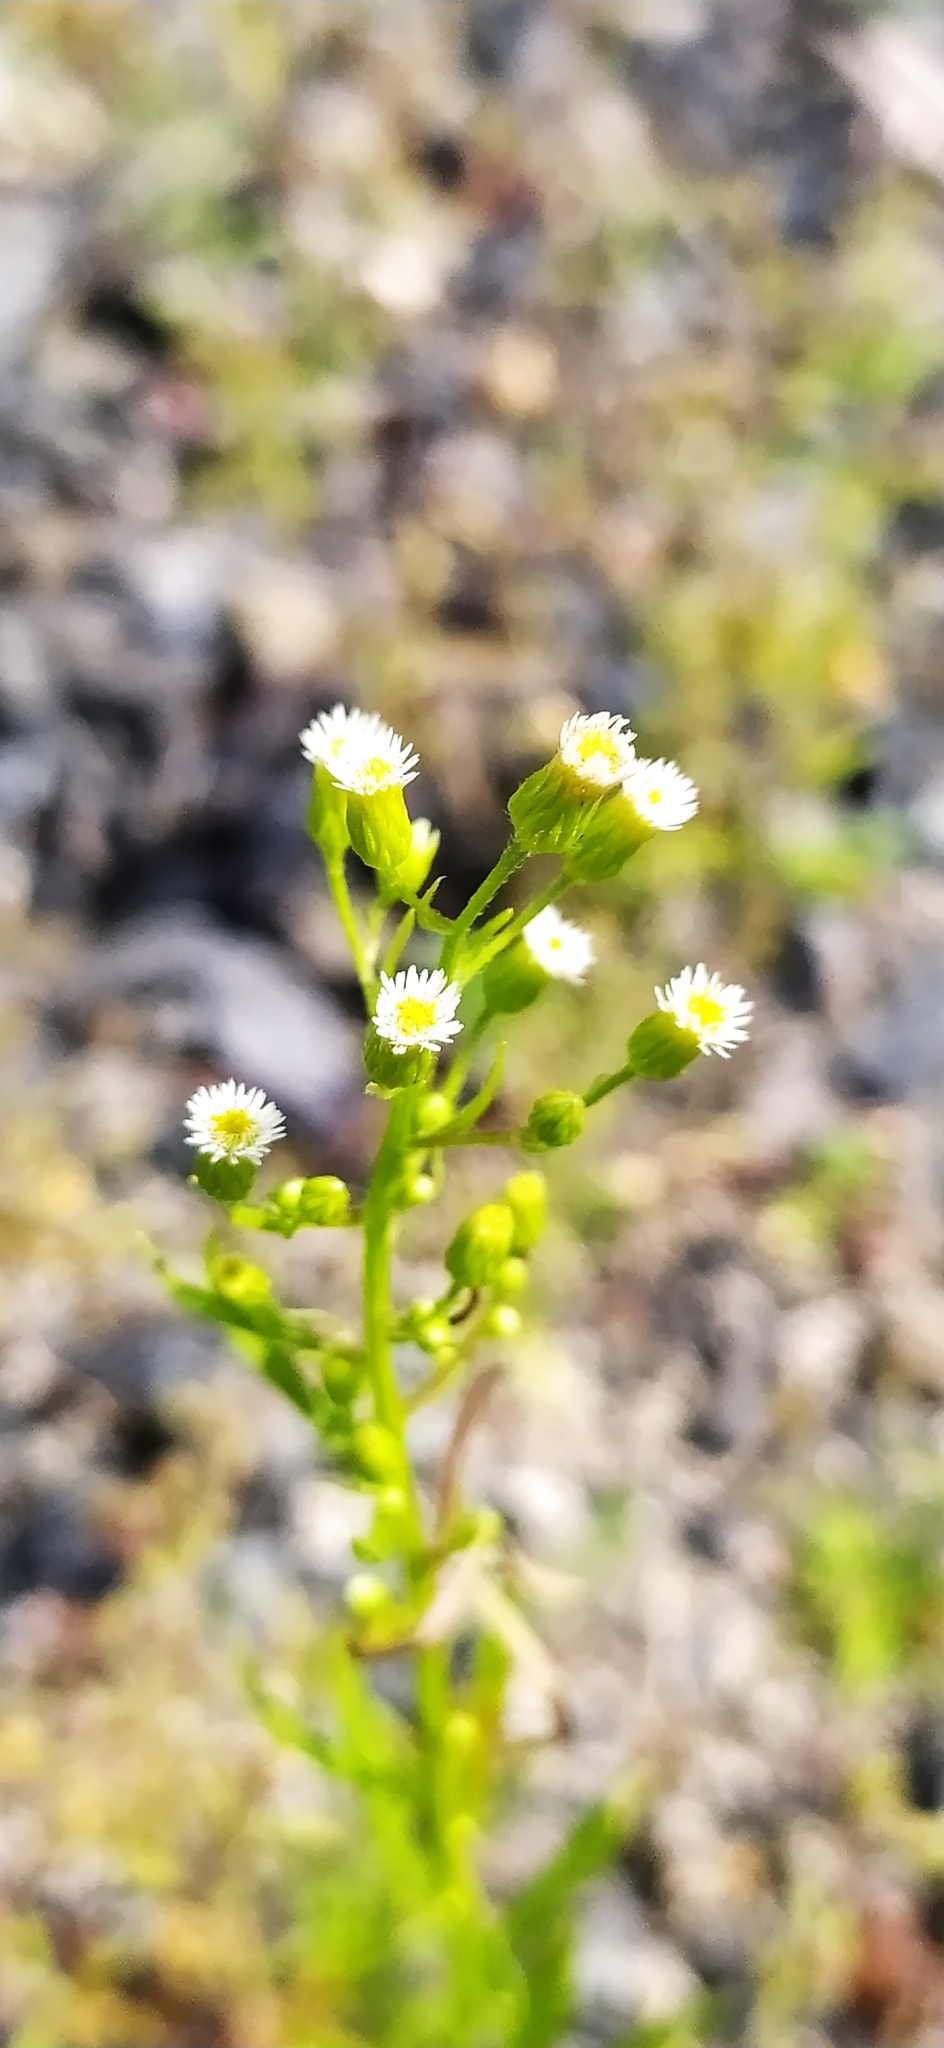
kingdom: Plantae
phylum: Tracheophyta
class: Magnoliopsida
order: Asterales
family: Asteraceae
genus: Erigeron
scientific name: Erigeron canadensis
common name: Canadian fleabane
